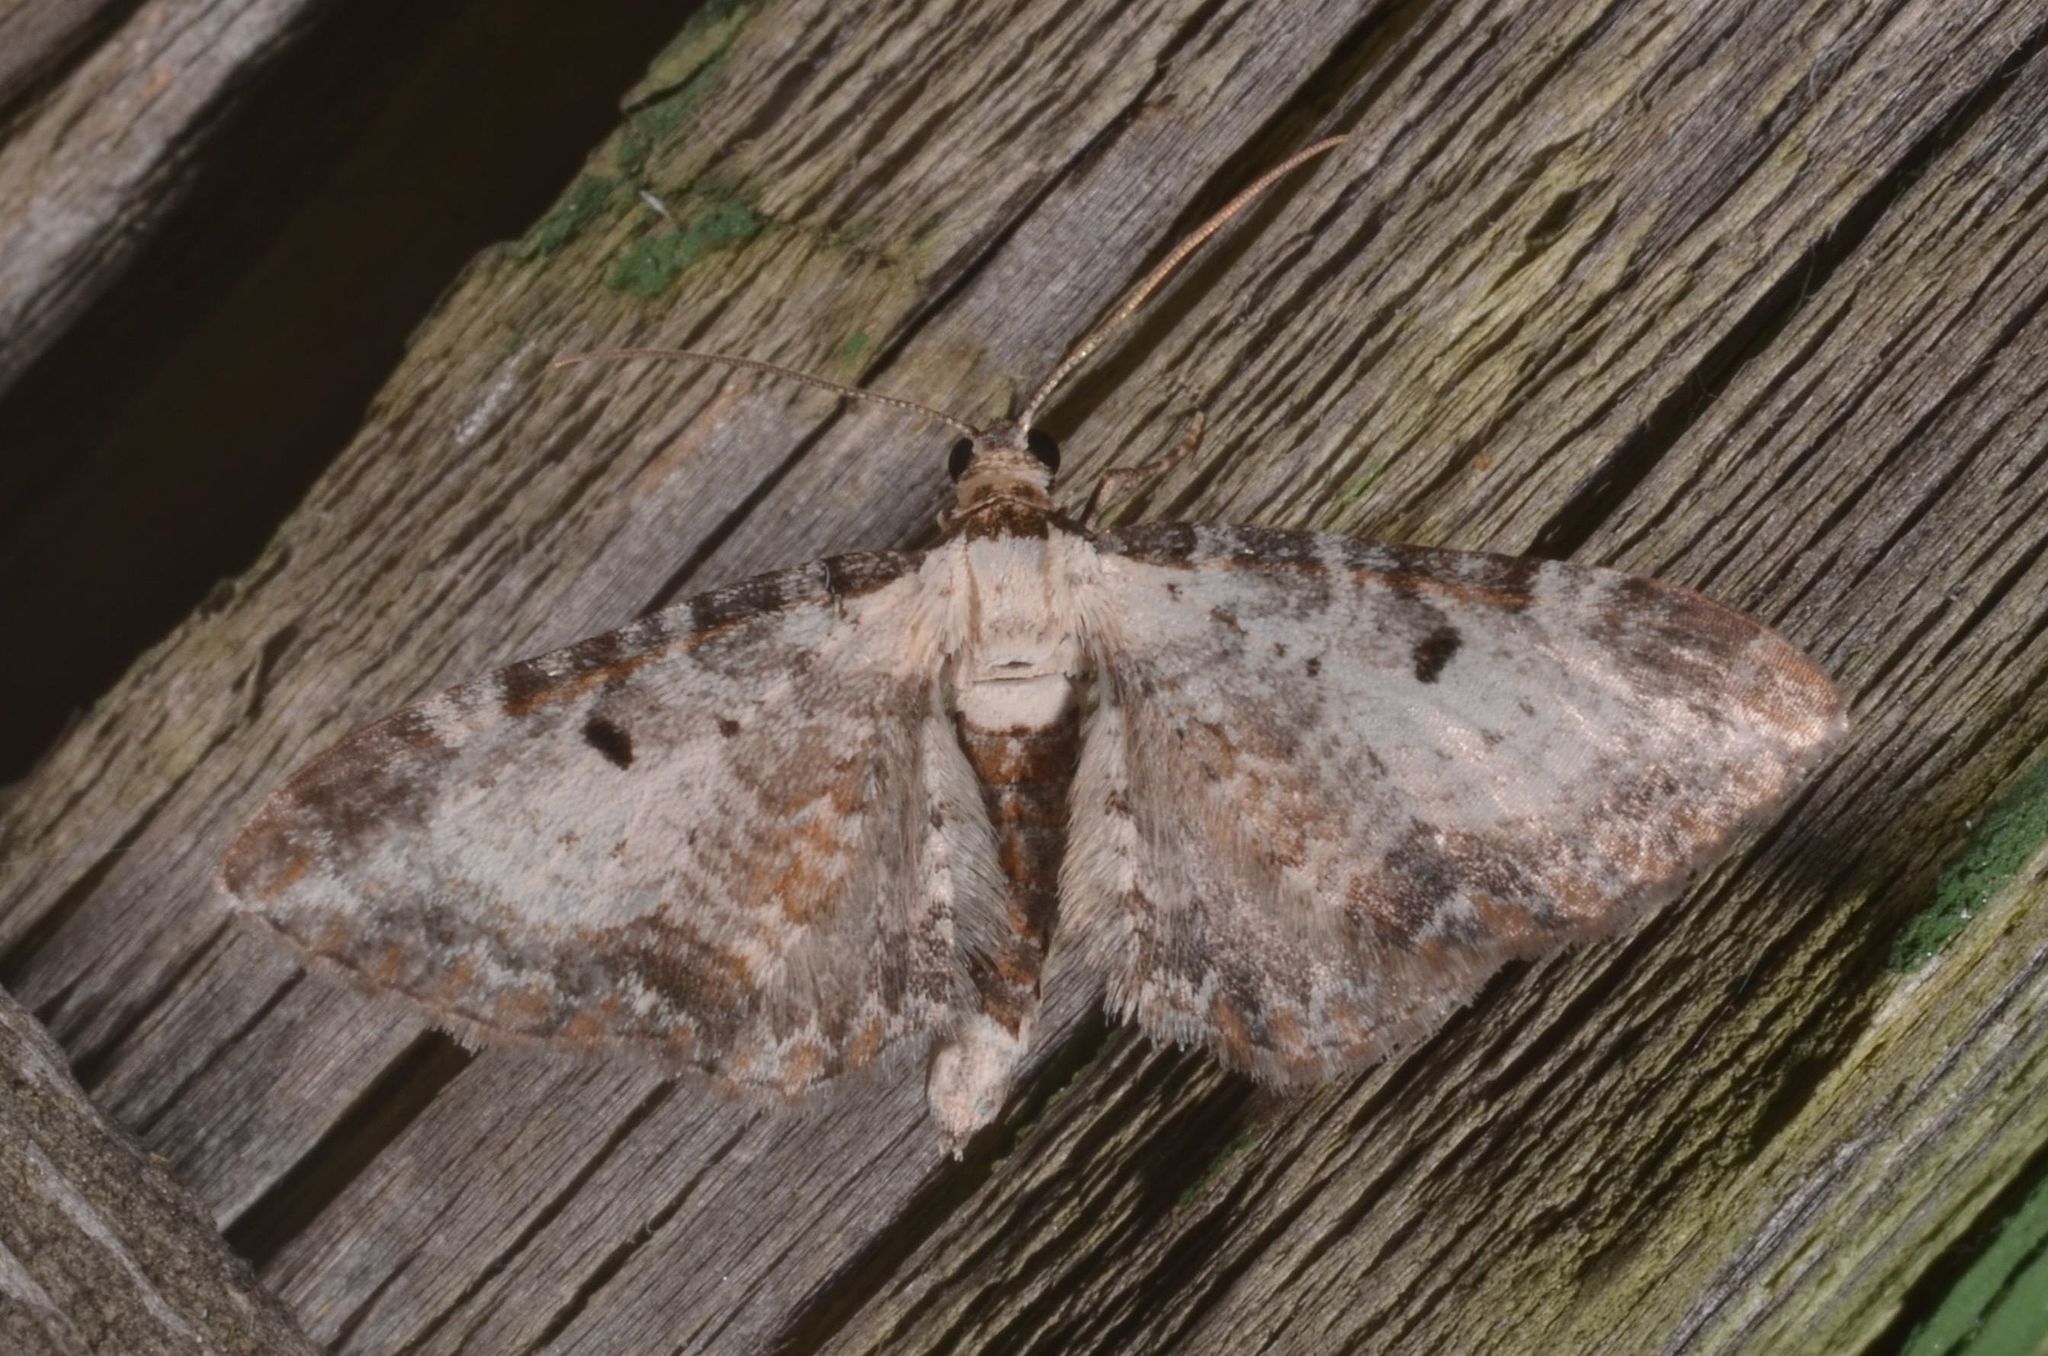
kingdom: Animalia
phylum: Arthropoda
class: Insecta
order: Lepidoptera
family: Geometridae
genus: Eupithecia
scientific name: Eupithecia succenturiata
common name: Bordered pug
